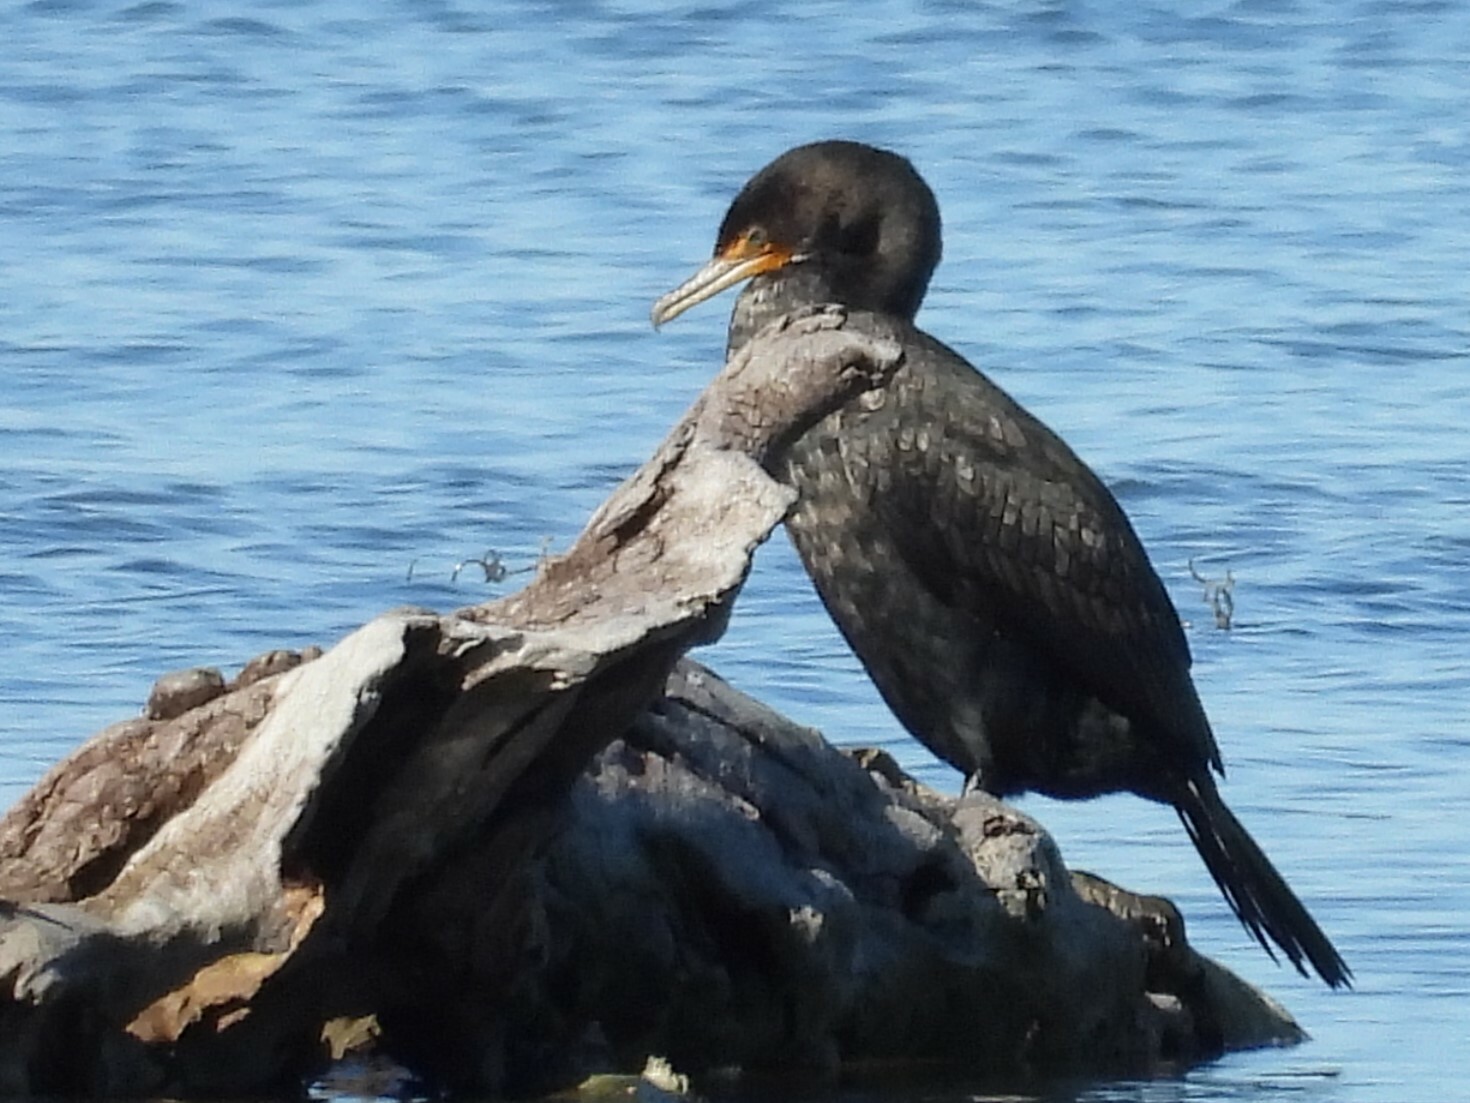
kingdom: Animalia
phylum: Chordata
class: Aves
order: Suliformes
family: Phalacrocoracidae
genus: Phalacrocorax
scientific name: Phalacrocorax auritus
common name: Double-crested cormorant
